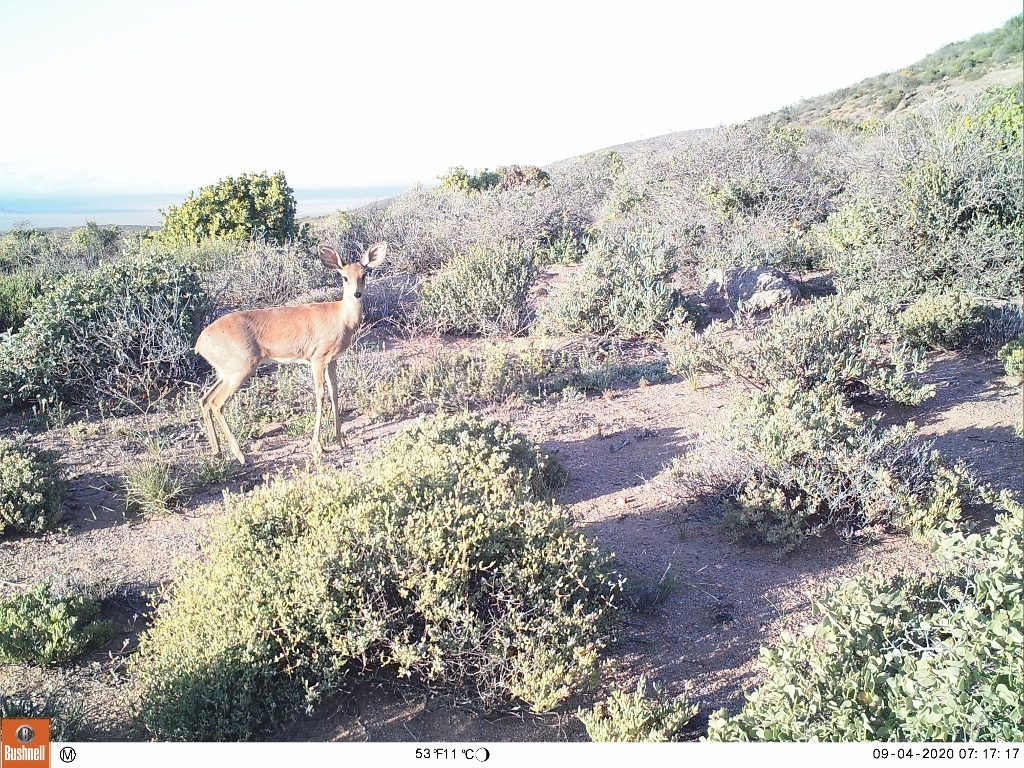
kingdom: Animalia
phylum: Chordata
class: Mammalia
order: Artiodactyla
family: Bovidae
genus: Raphicerus
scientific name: Raphicerus campestris
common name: Steenbok
